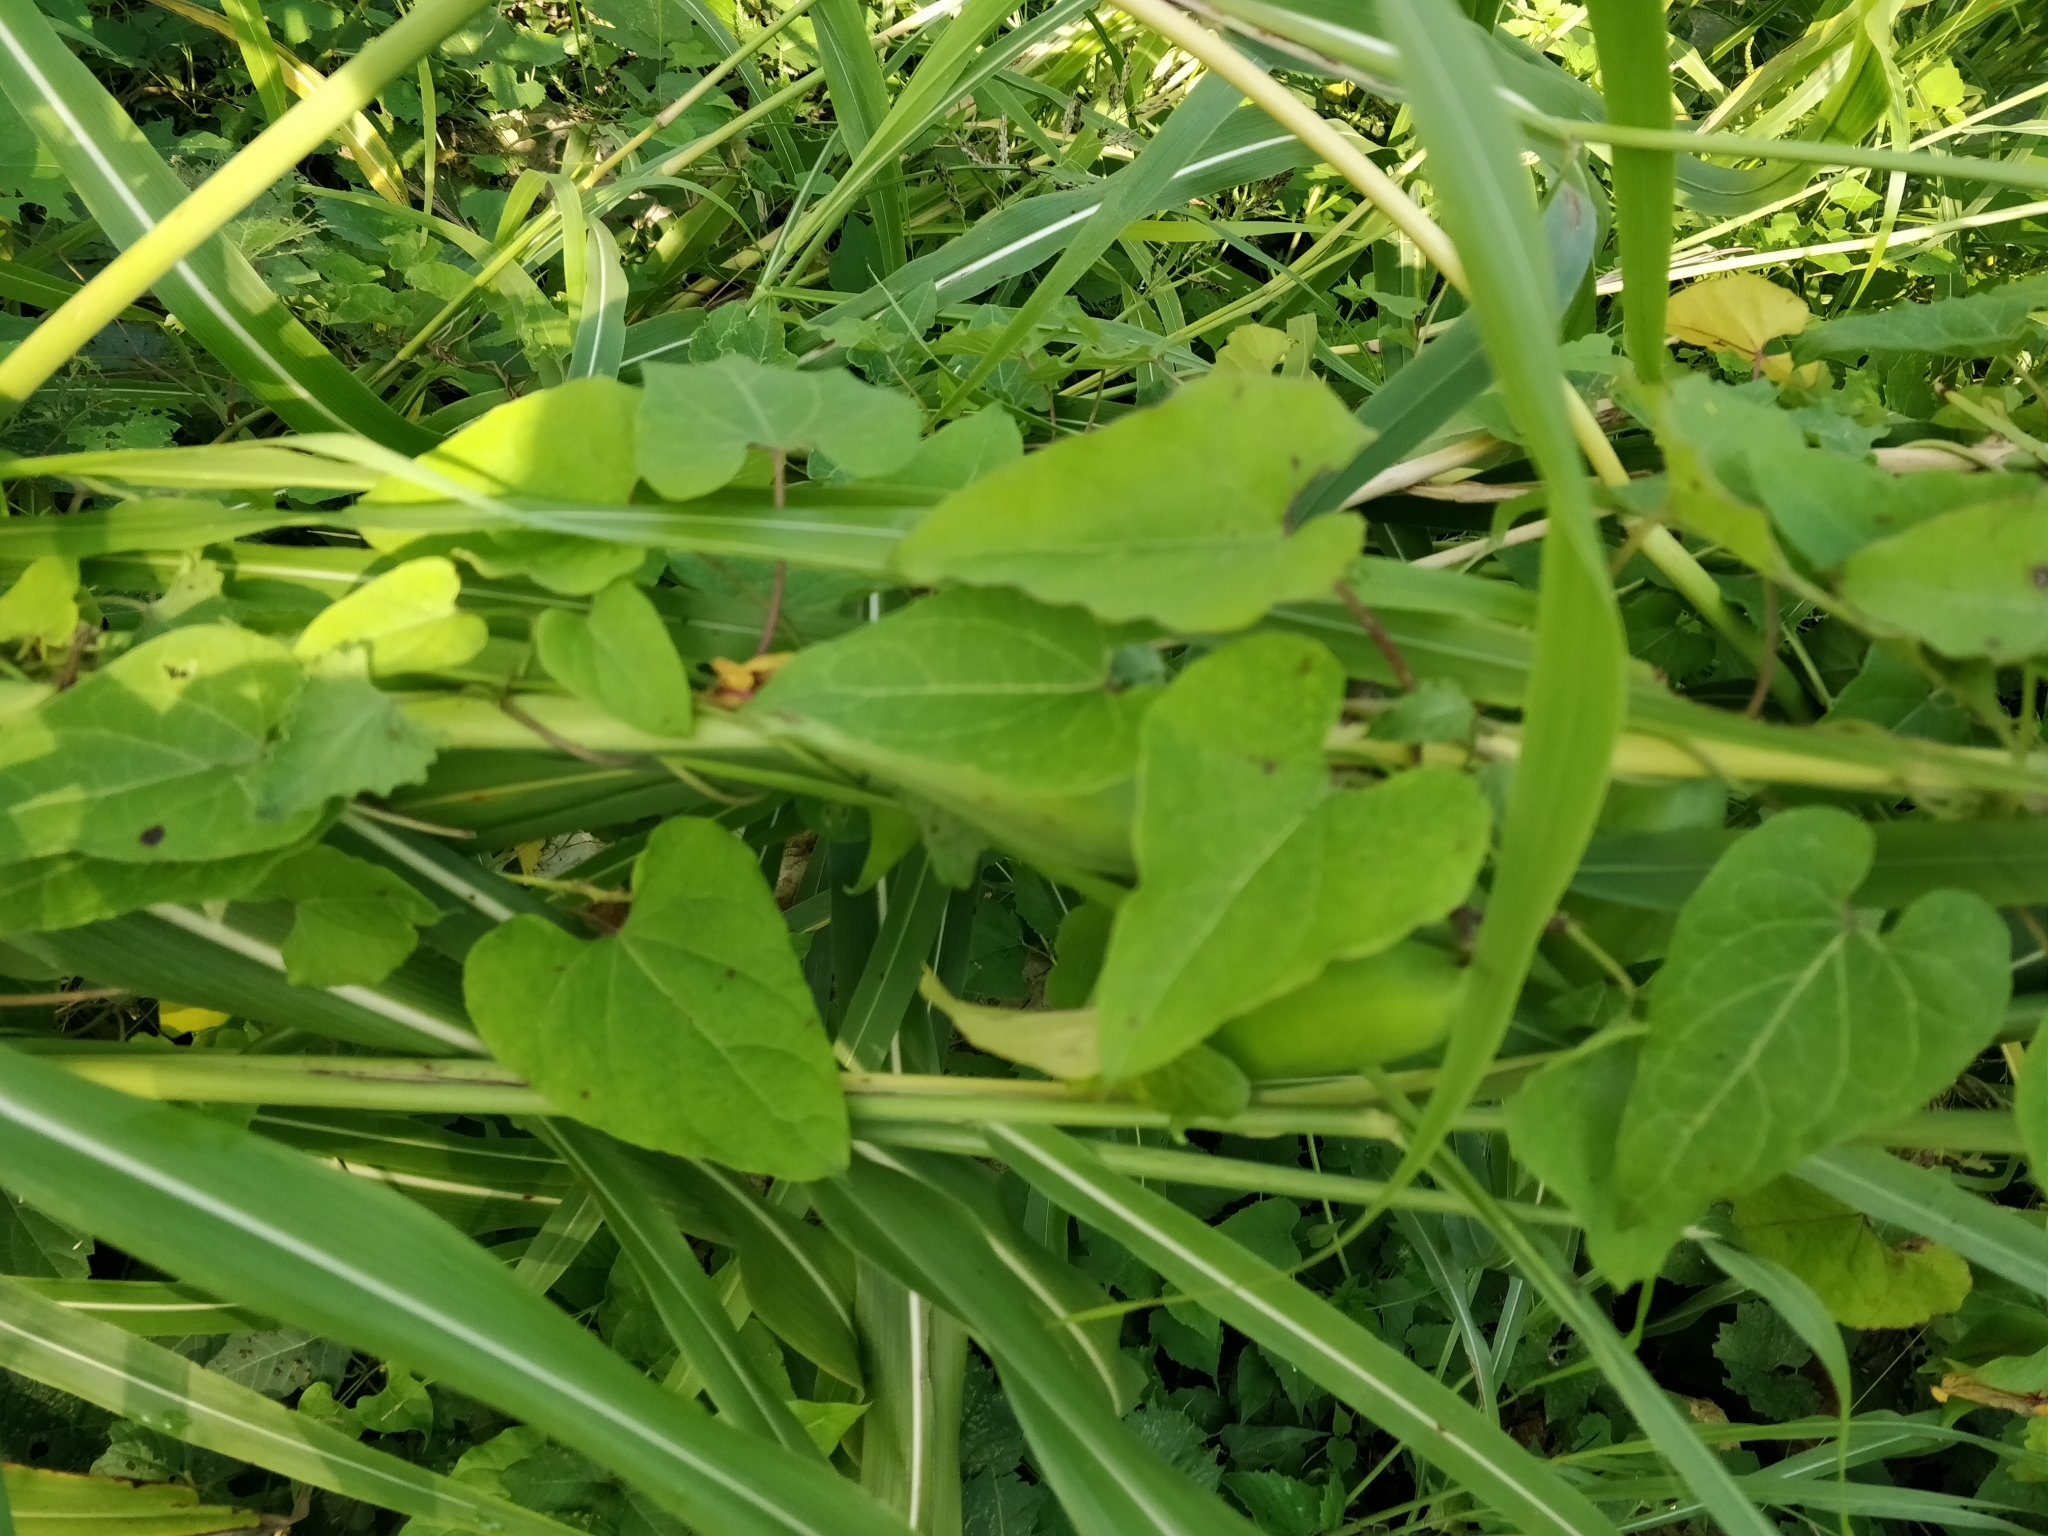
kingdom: Plantae
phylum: Tracheophyta
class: Magnoliopsida
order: Gentianales
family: Apocynaceae
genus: Cynanchum
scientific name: Cynanchum laeve
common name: Sandvine
